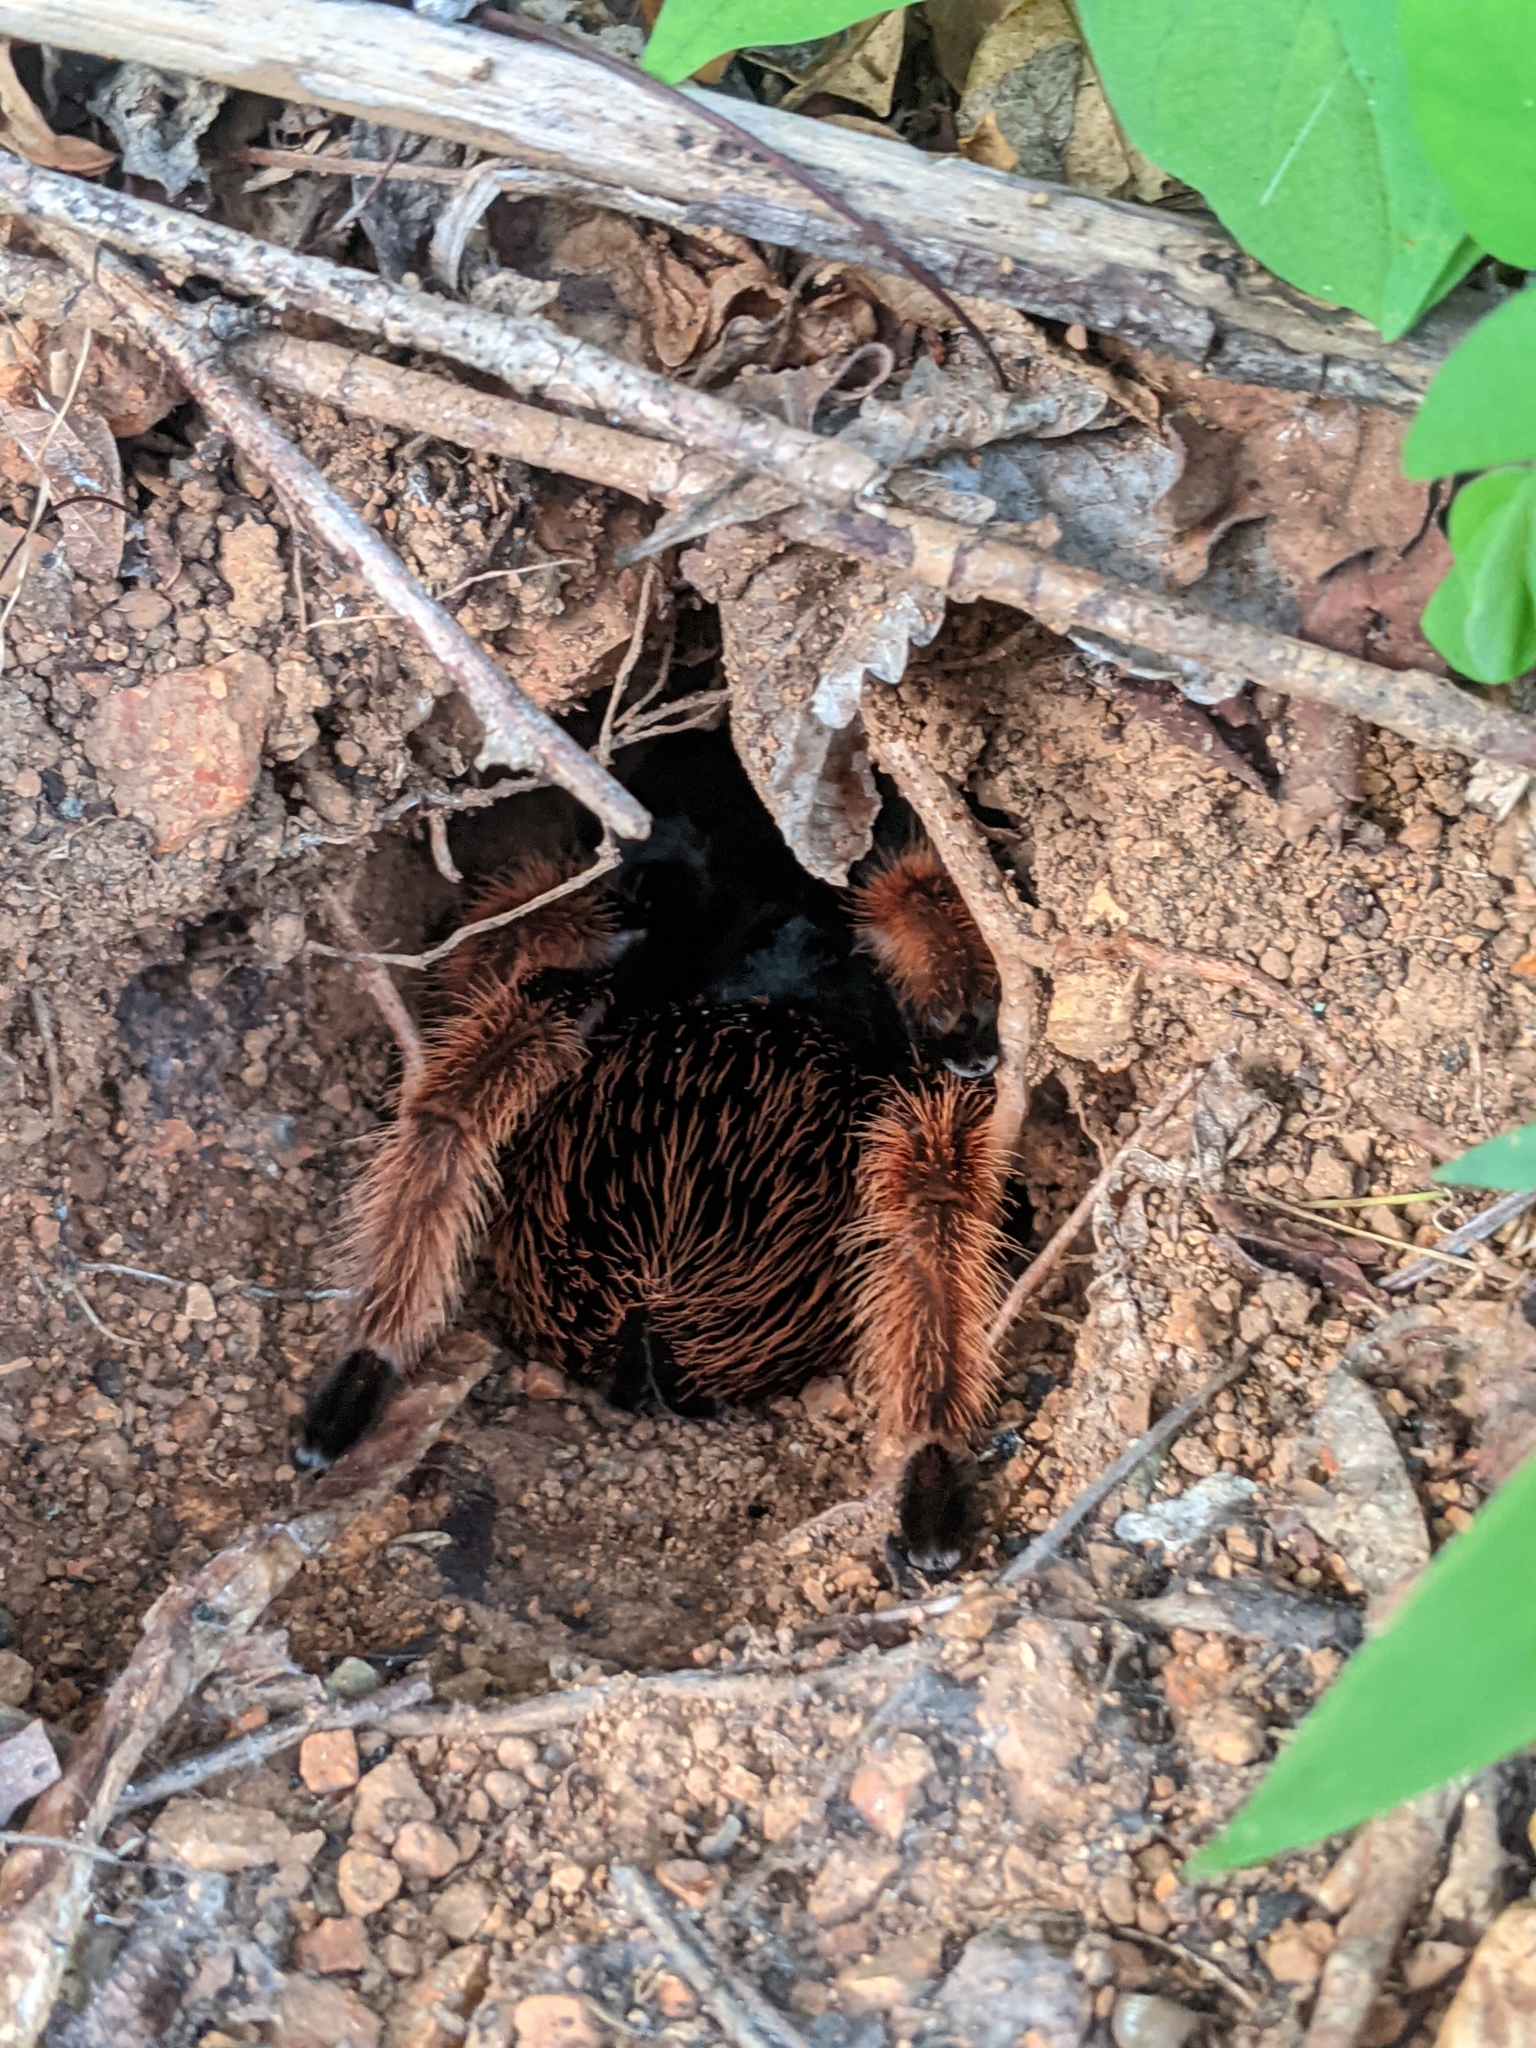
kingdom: Animalia
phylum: Arthropoda
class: Arachnida
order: Araneae
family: Theraphosidae
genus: Brachypelma
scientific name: Brachypelma klaasi
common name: Mexican pink beauty
